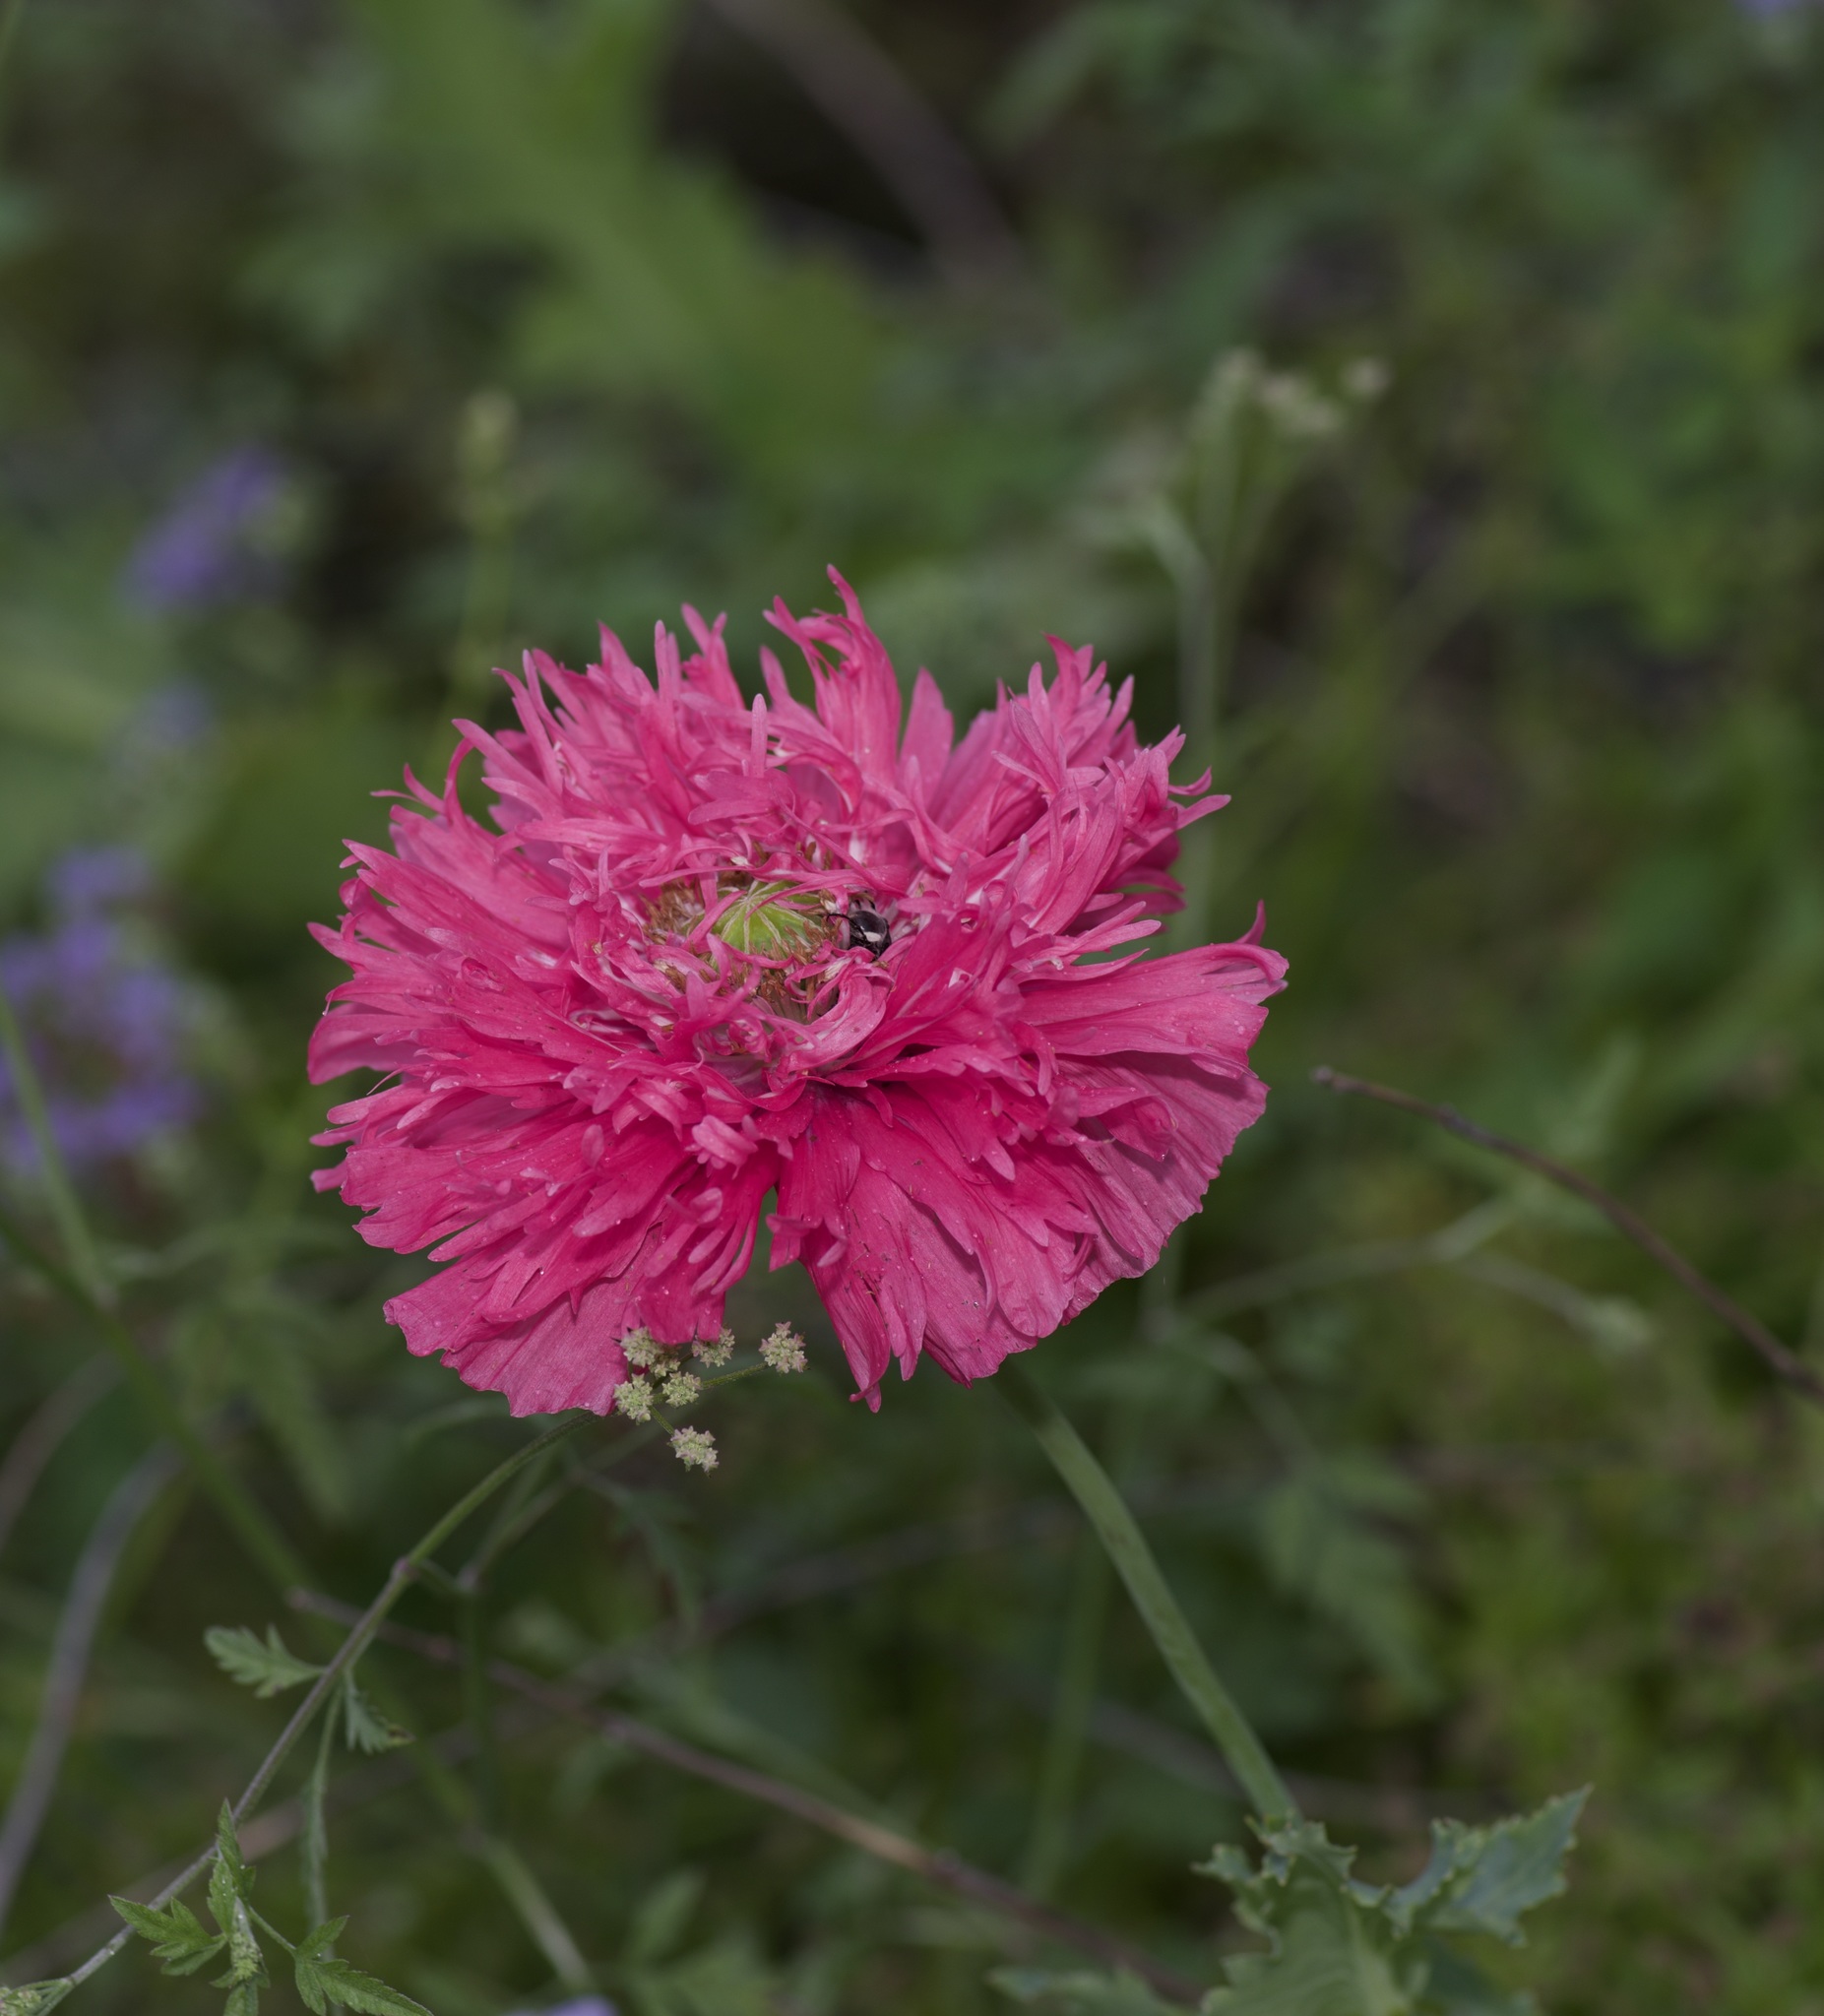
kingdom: Plantae
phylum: Tracheophyta
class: Magnoliopsida
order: Ranunculales
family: Papaveraceae
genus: Papaver
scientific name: Papaver somniferum
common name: Opium poppy
